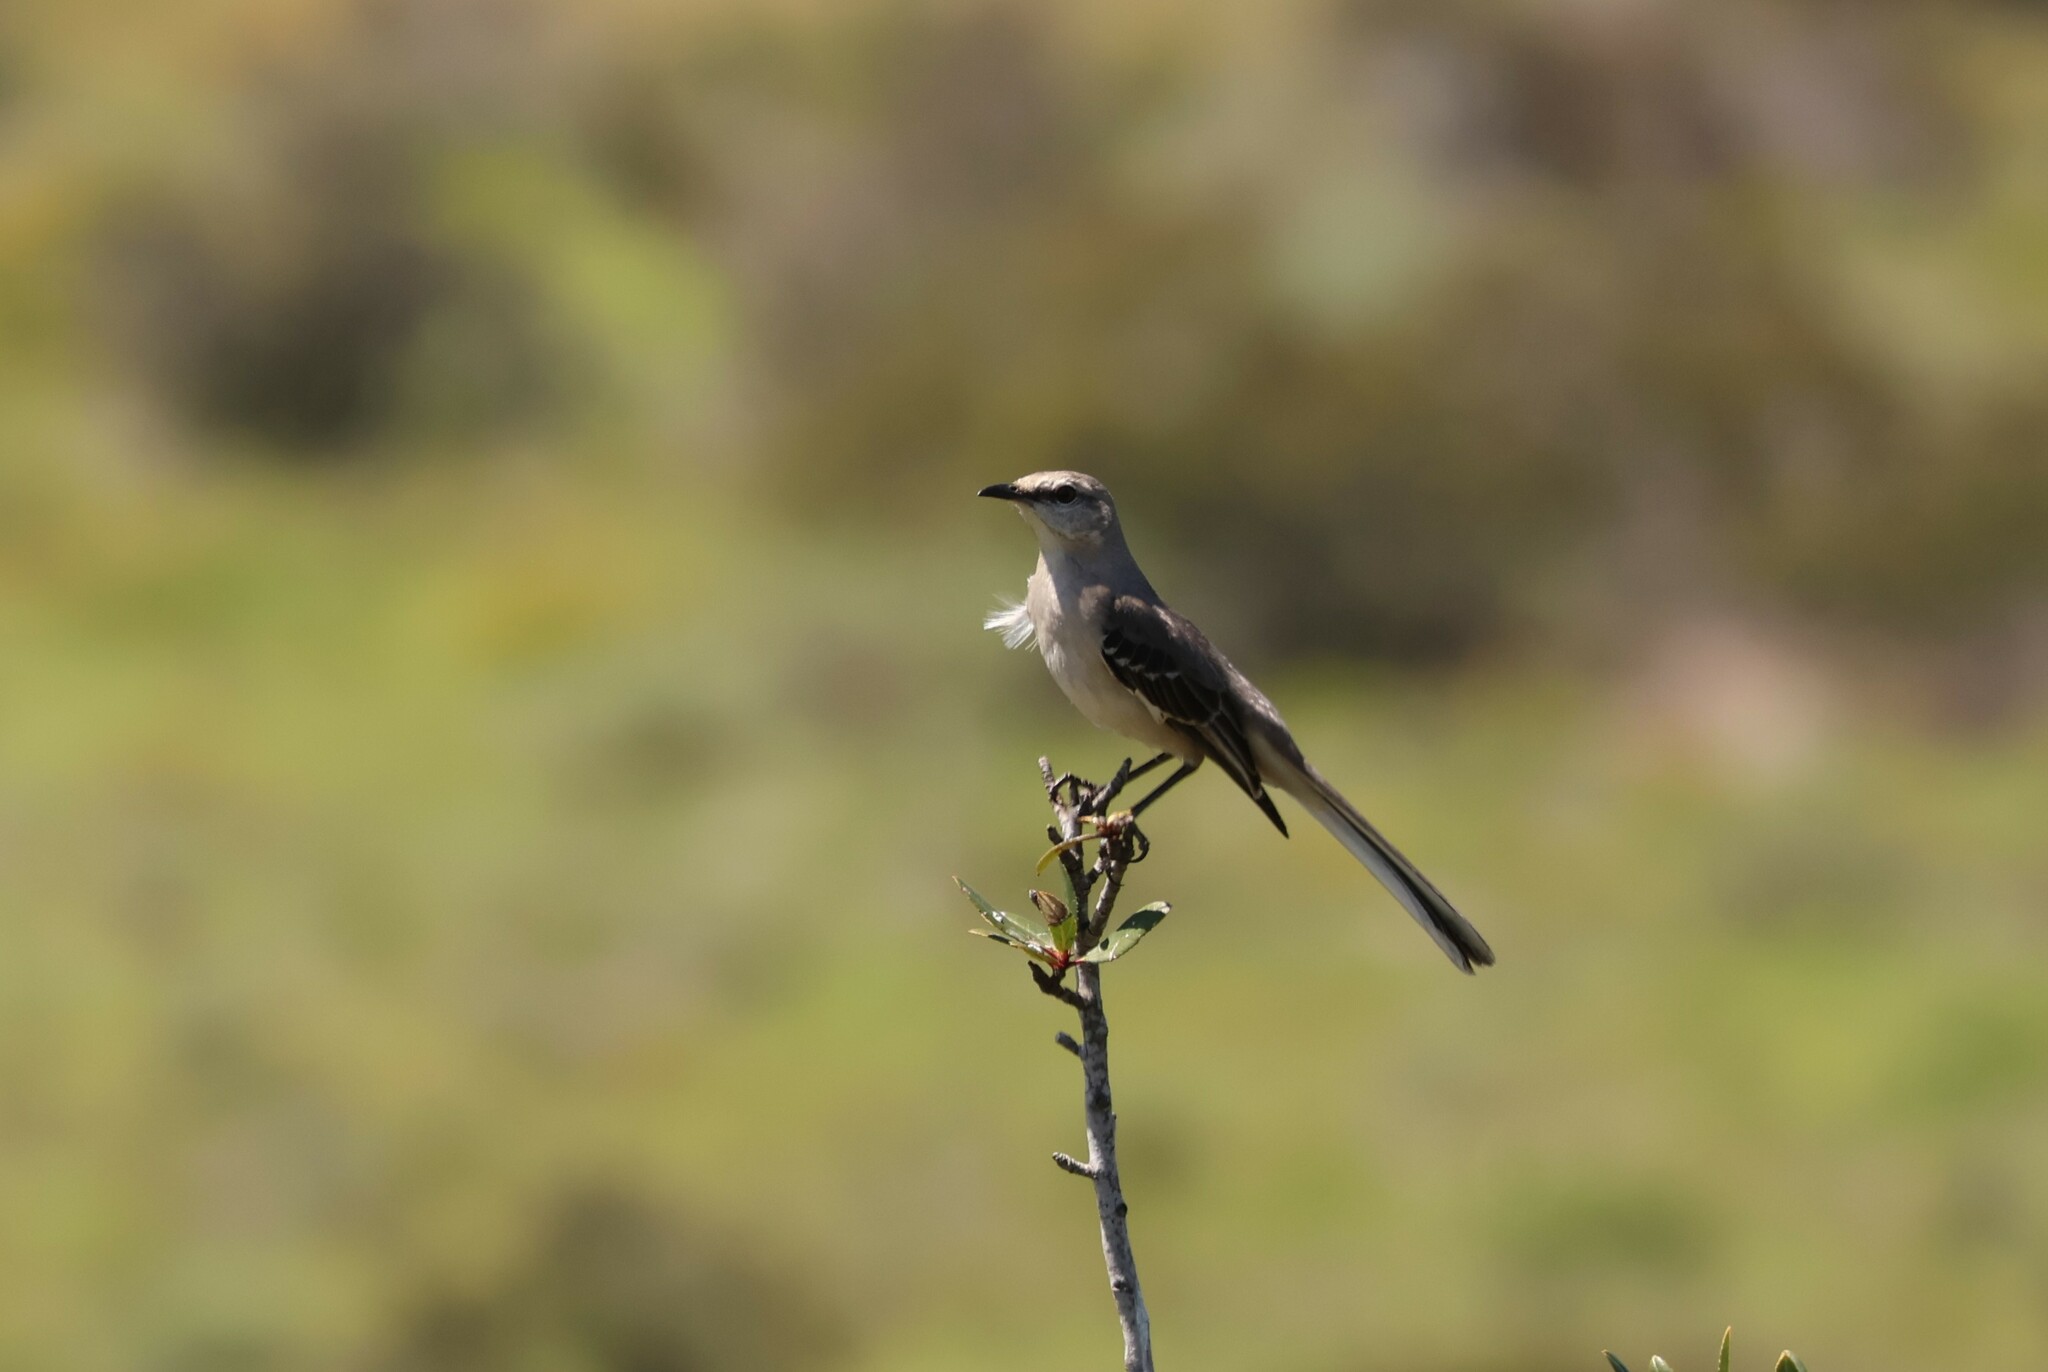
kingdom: Animalia
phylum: Chordata
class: Aves
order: Passeriformes
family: Mimidae
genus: Mimus
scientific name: Mimus polyglottos
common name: Northern mockingbird
